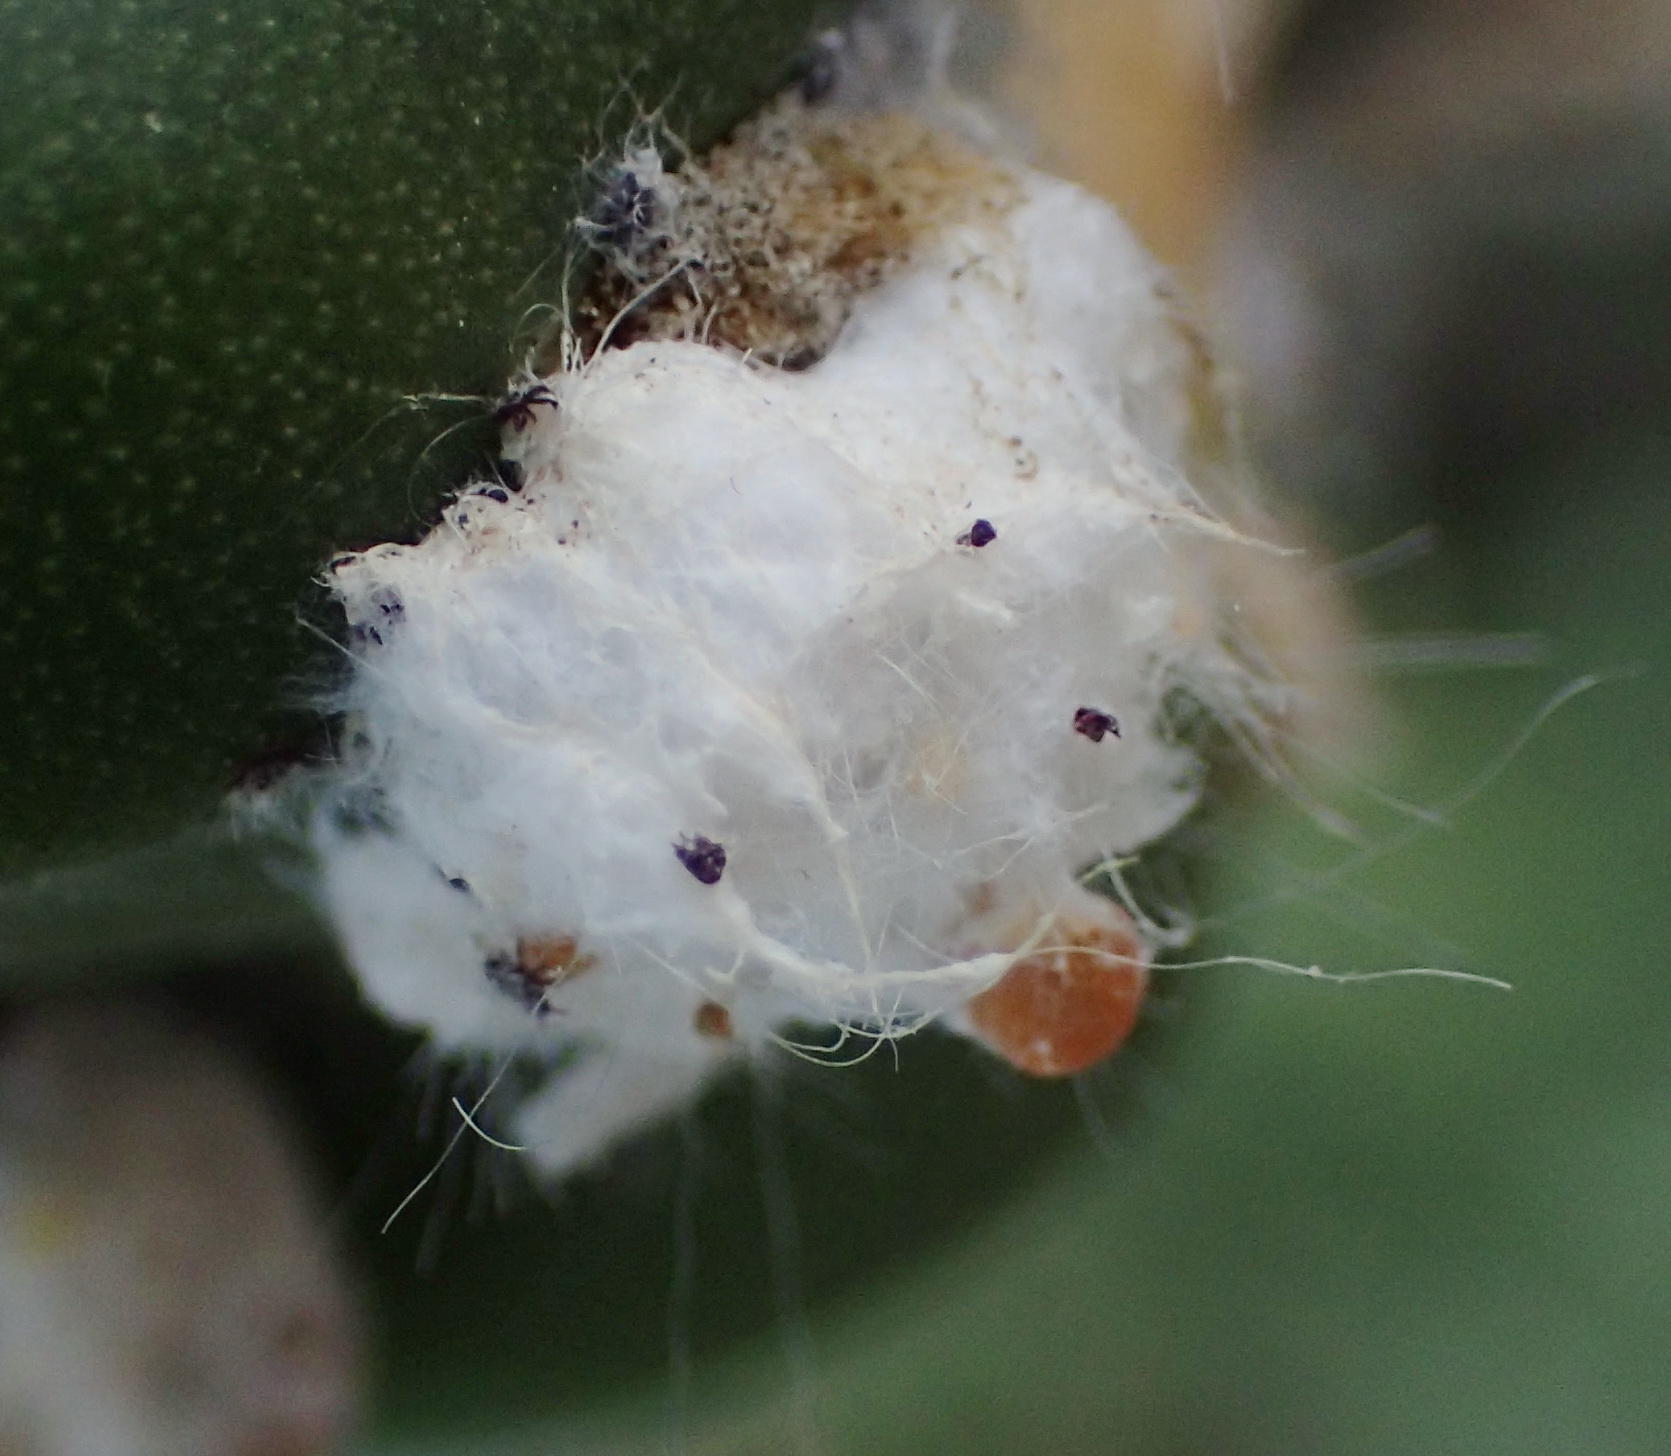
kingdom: Animalia
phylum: Arthropoda
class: Insecta
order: Hemiptera
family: Dactylopiidae
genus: Dactylopius
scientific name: Dactylopius tomentosus
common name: Tomentose cochineal scale
